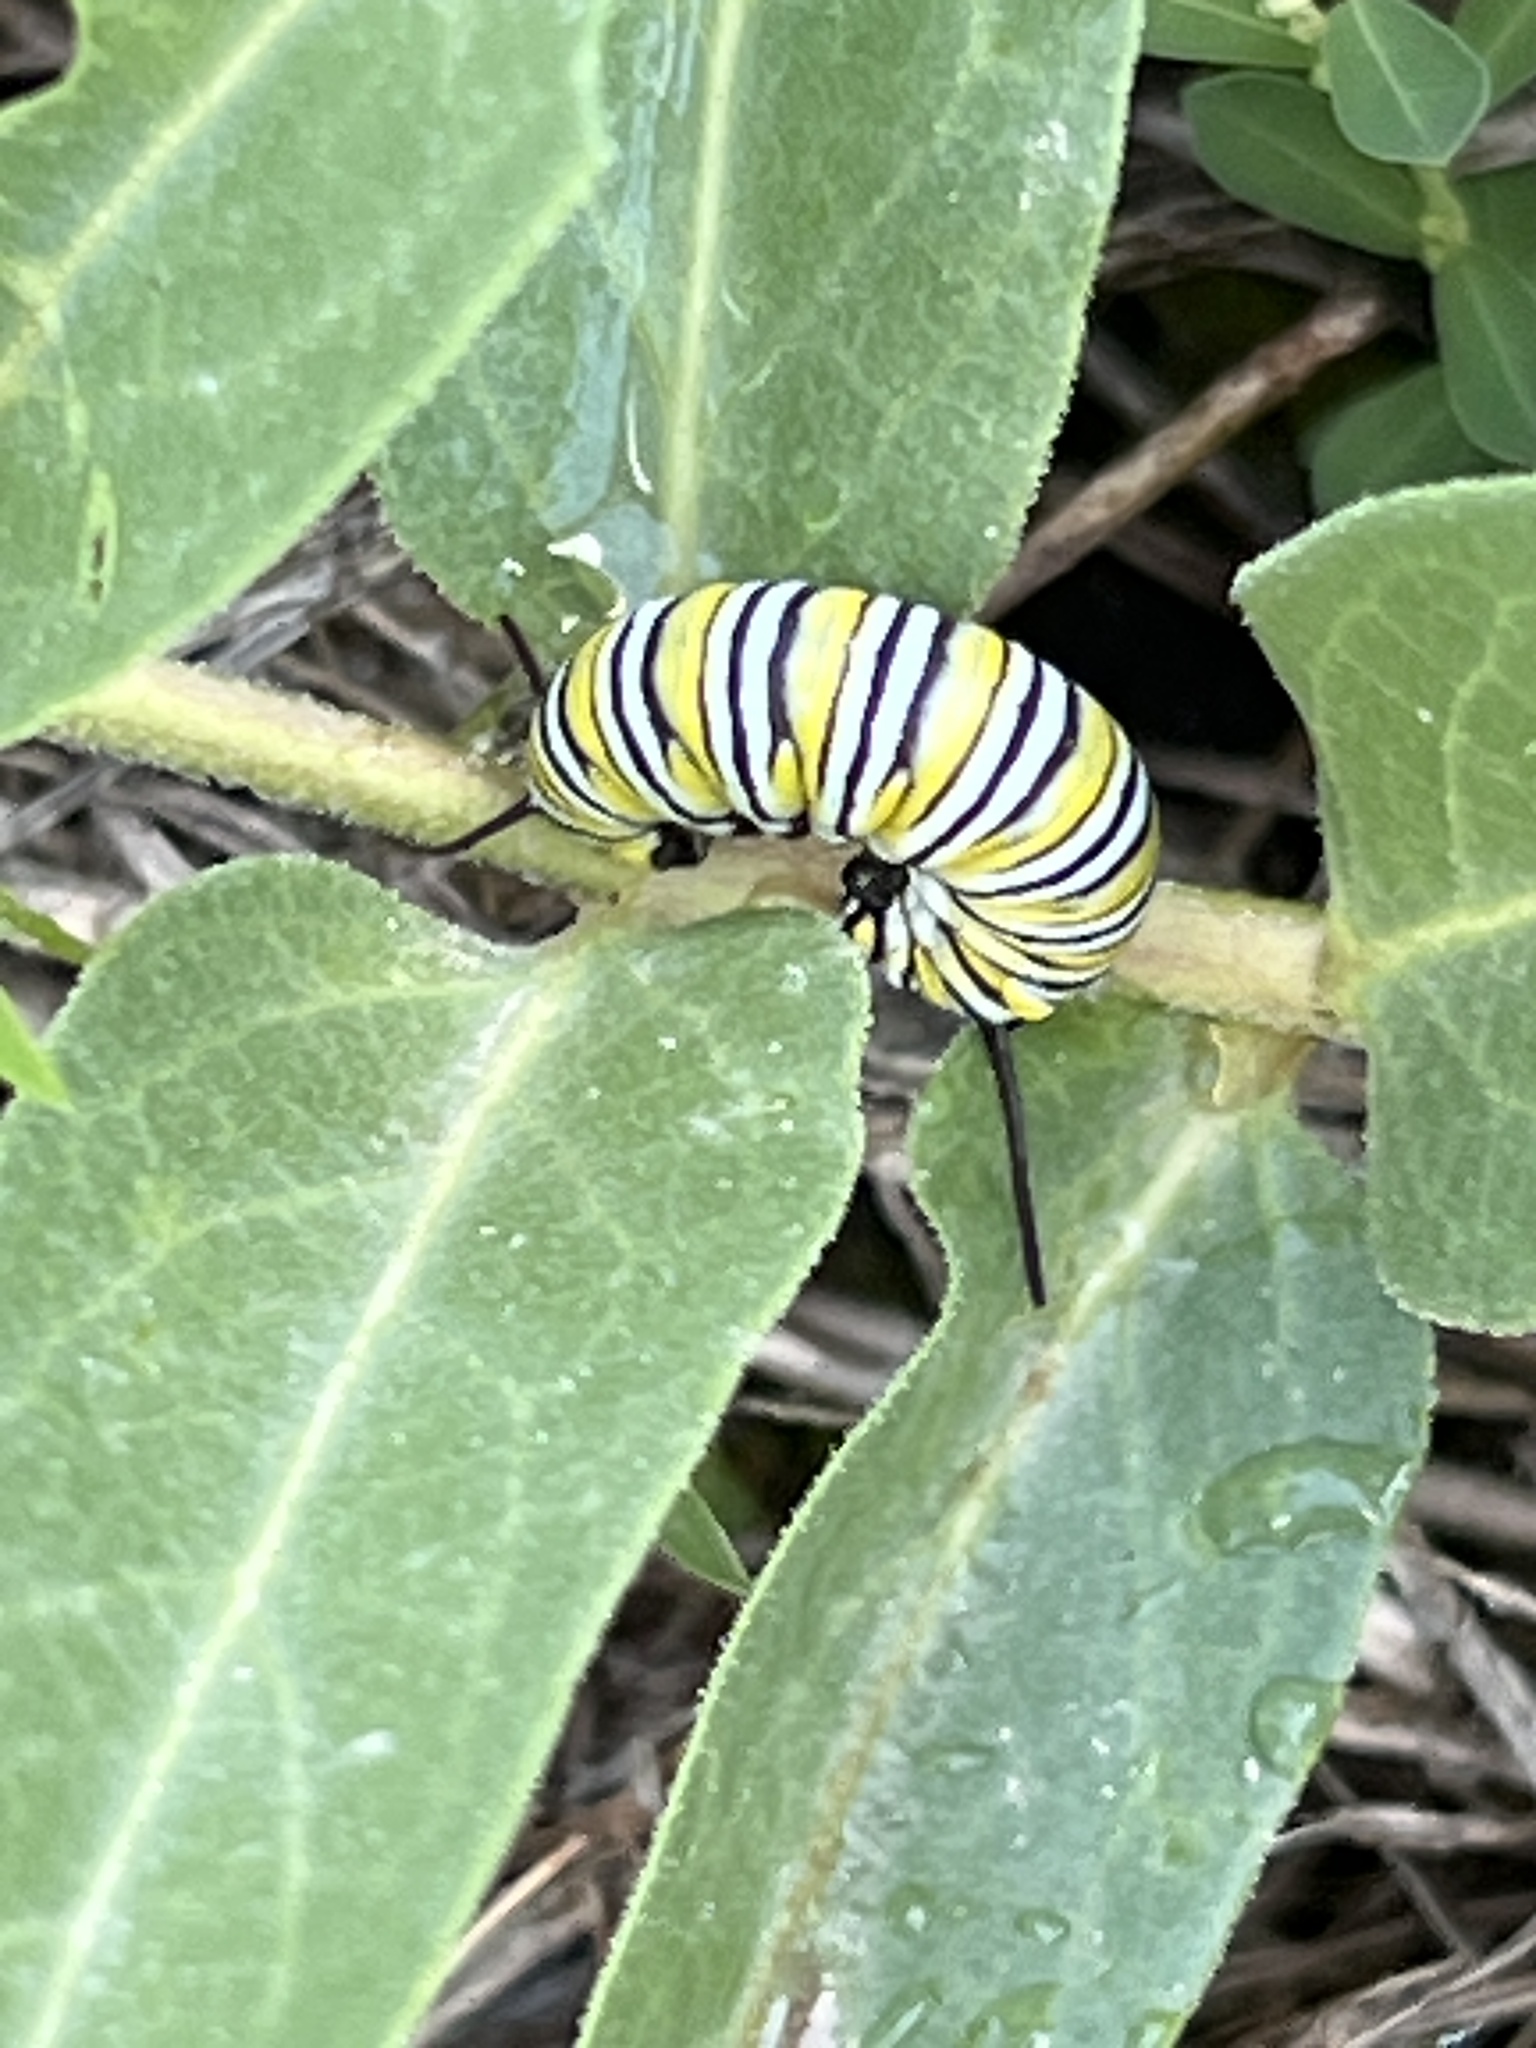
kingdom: Animalia
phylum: Arthropoda
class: Insecta
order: Lepidoptera
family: Nymphalidae
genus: Danaus
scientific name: Danaus plexippus
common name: Monarch
